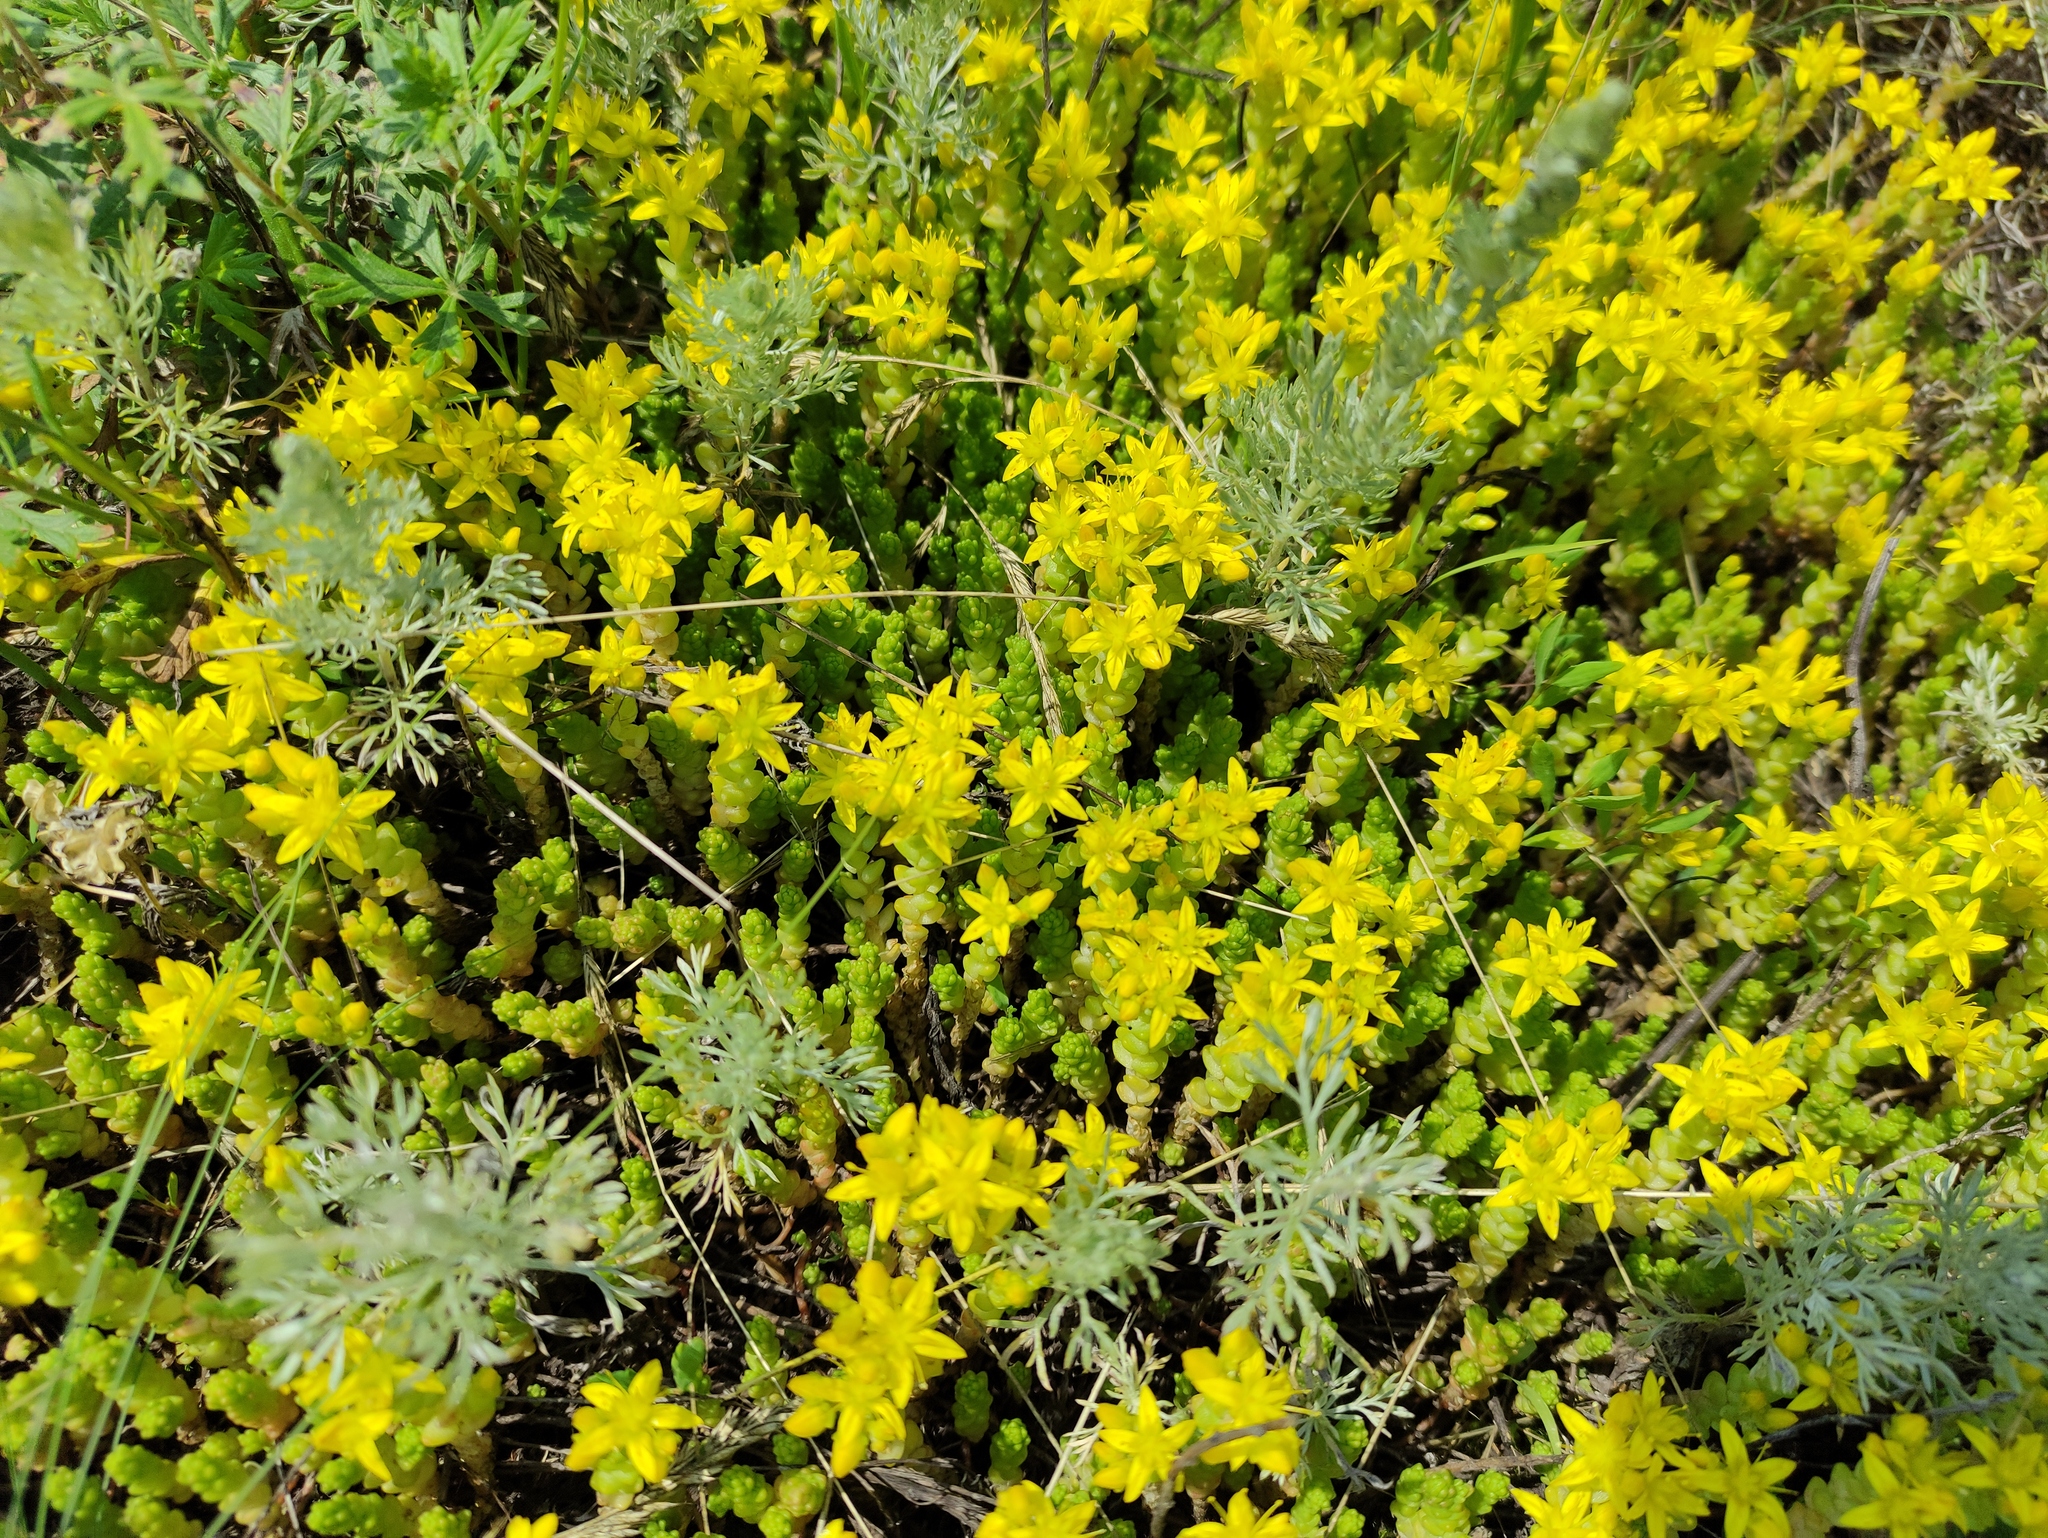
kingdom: Plantae
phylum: Tracheophyta
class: Magnoliopsida
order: Saxifragales
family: Crassulaceae
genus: Sedum
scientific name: Sedum acre
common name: Biting stonecrop
